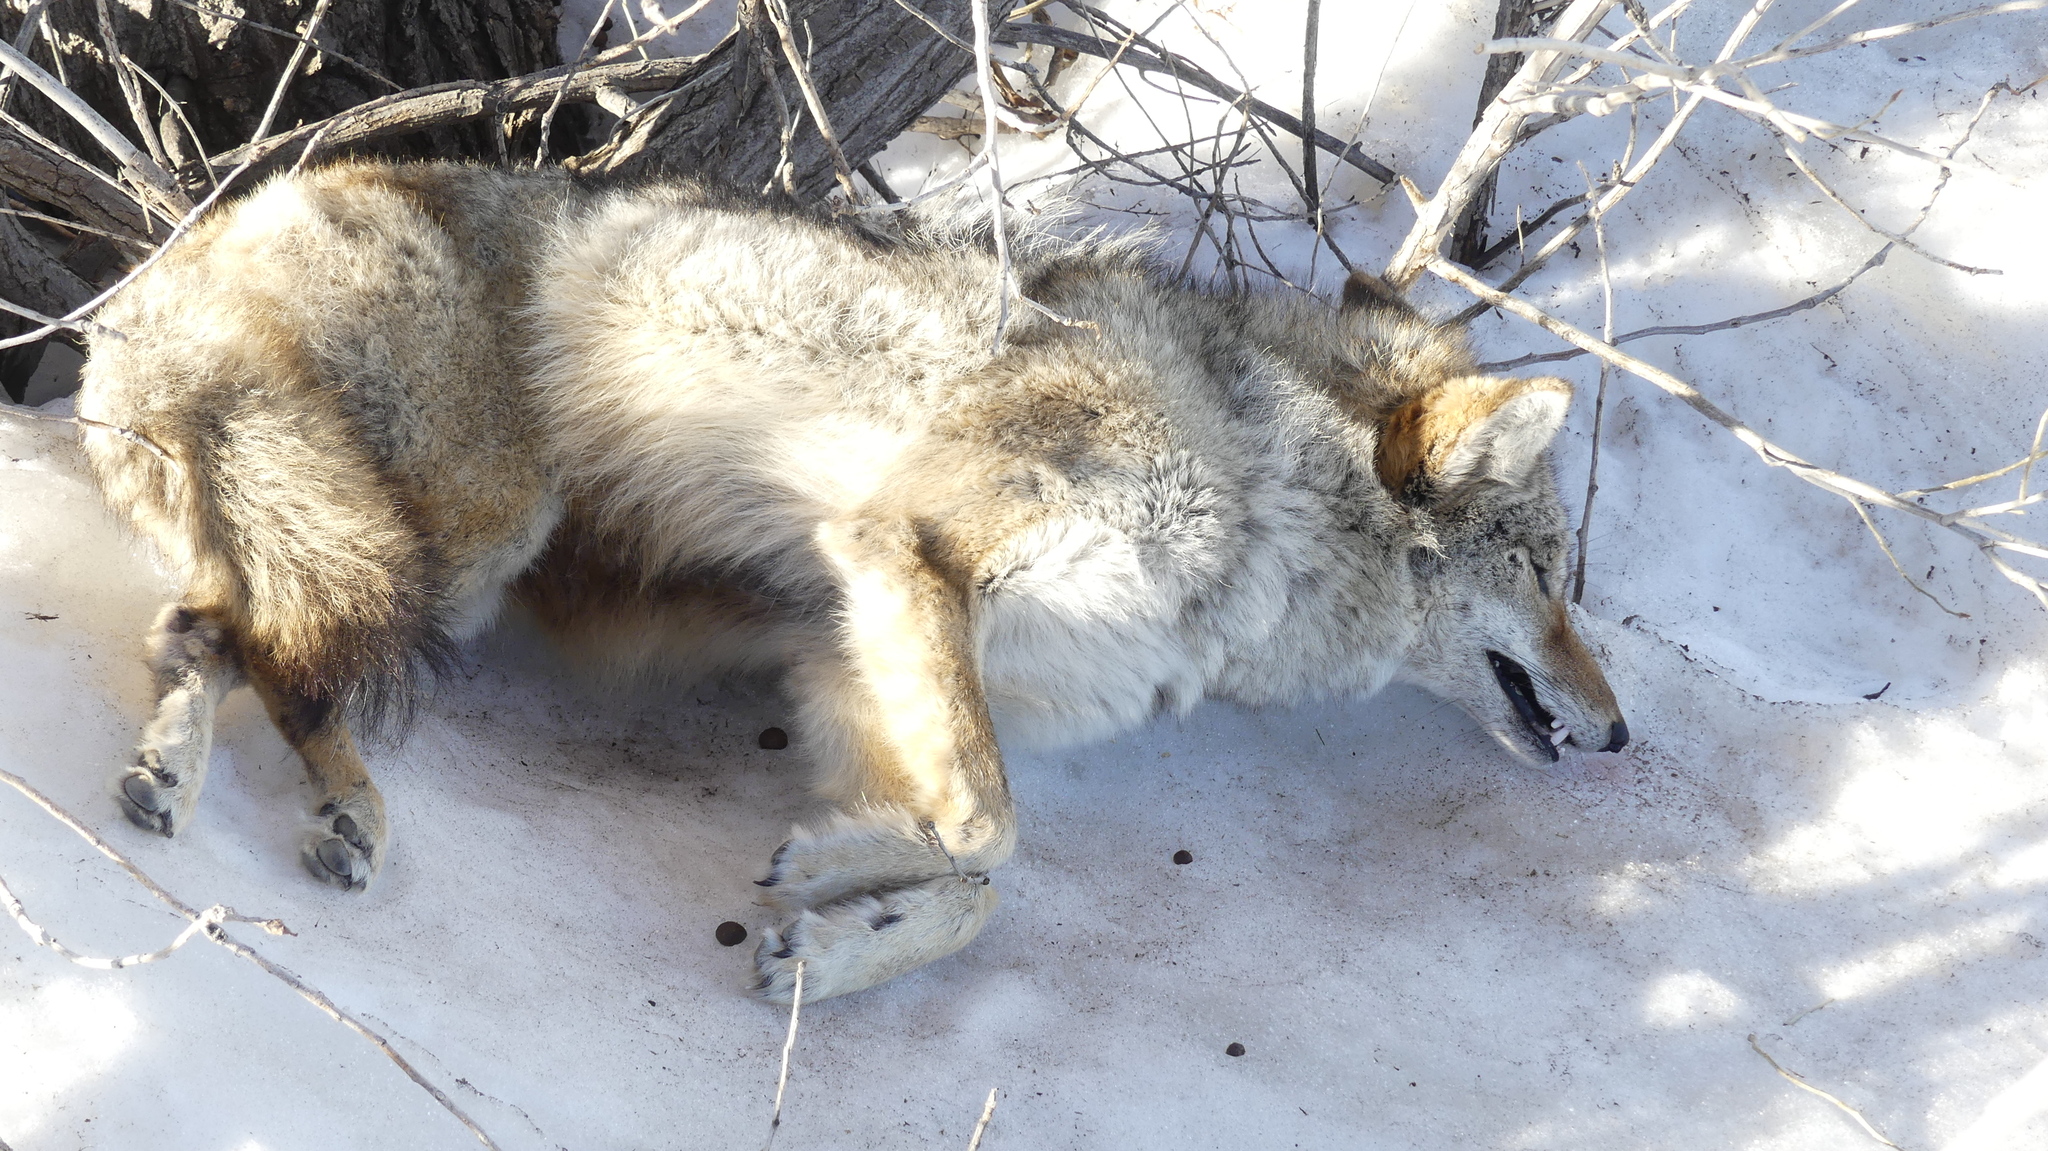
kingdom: Animalia
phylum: Chordata
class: Mammalia
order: Carnivora
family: Canidae
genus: Canis
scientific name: Canis latrans
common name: Coyote
